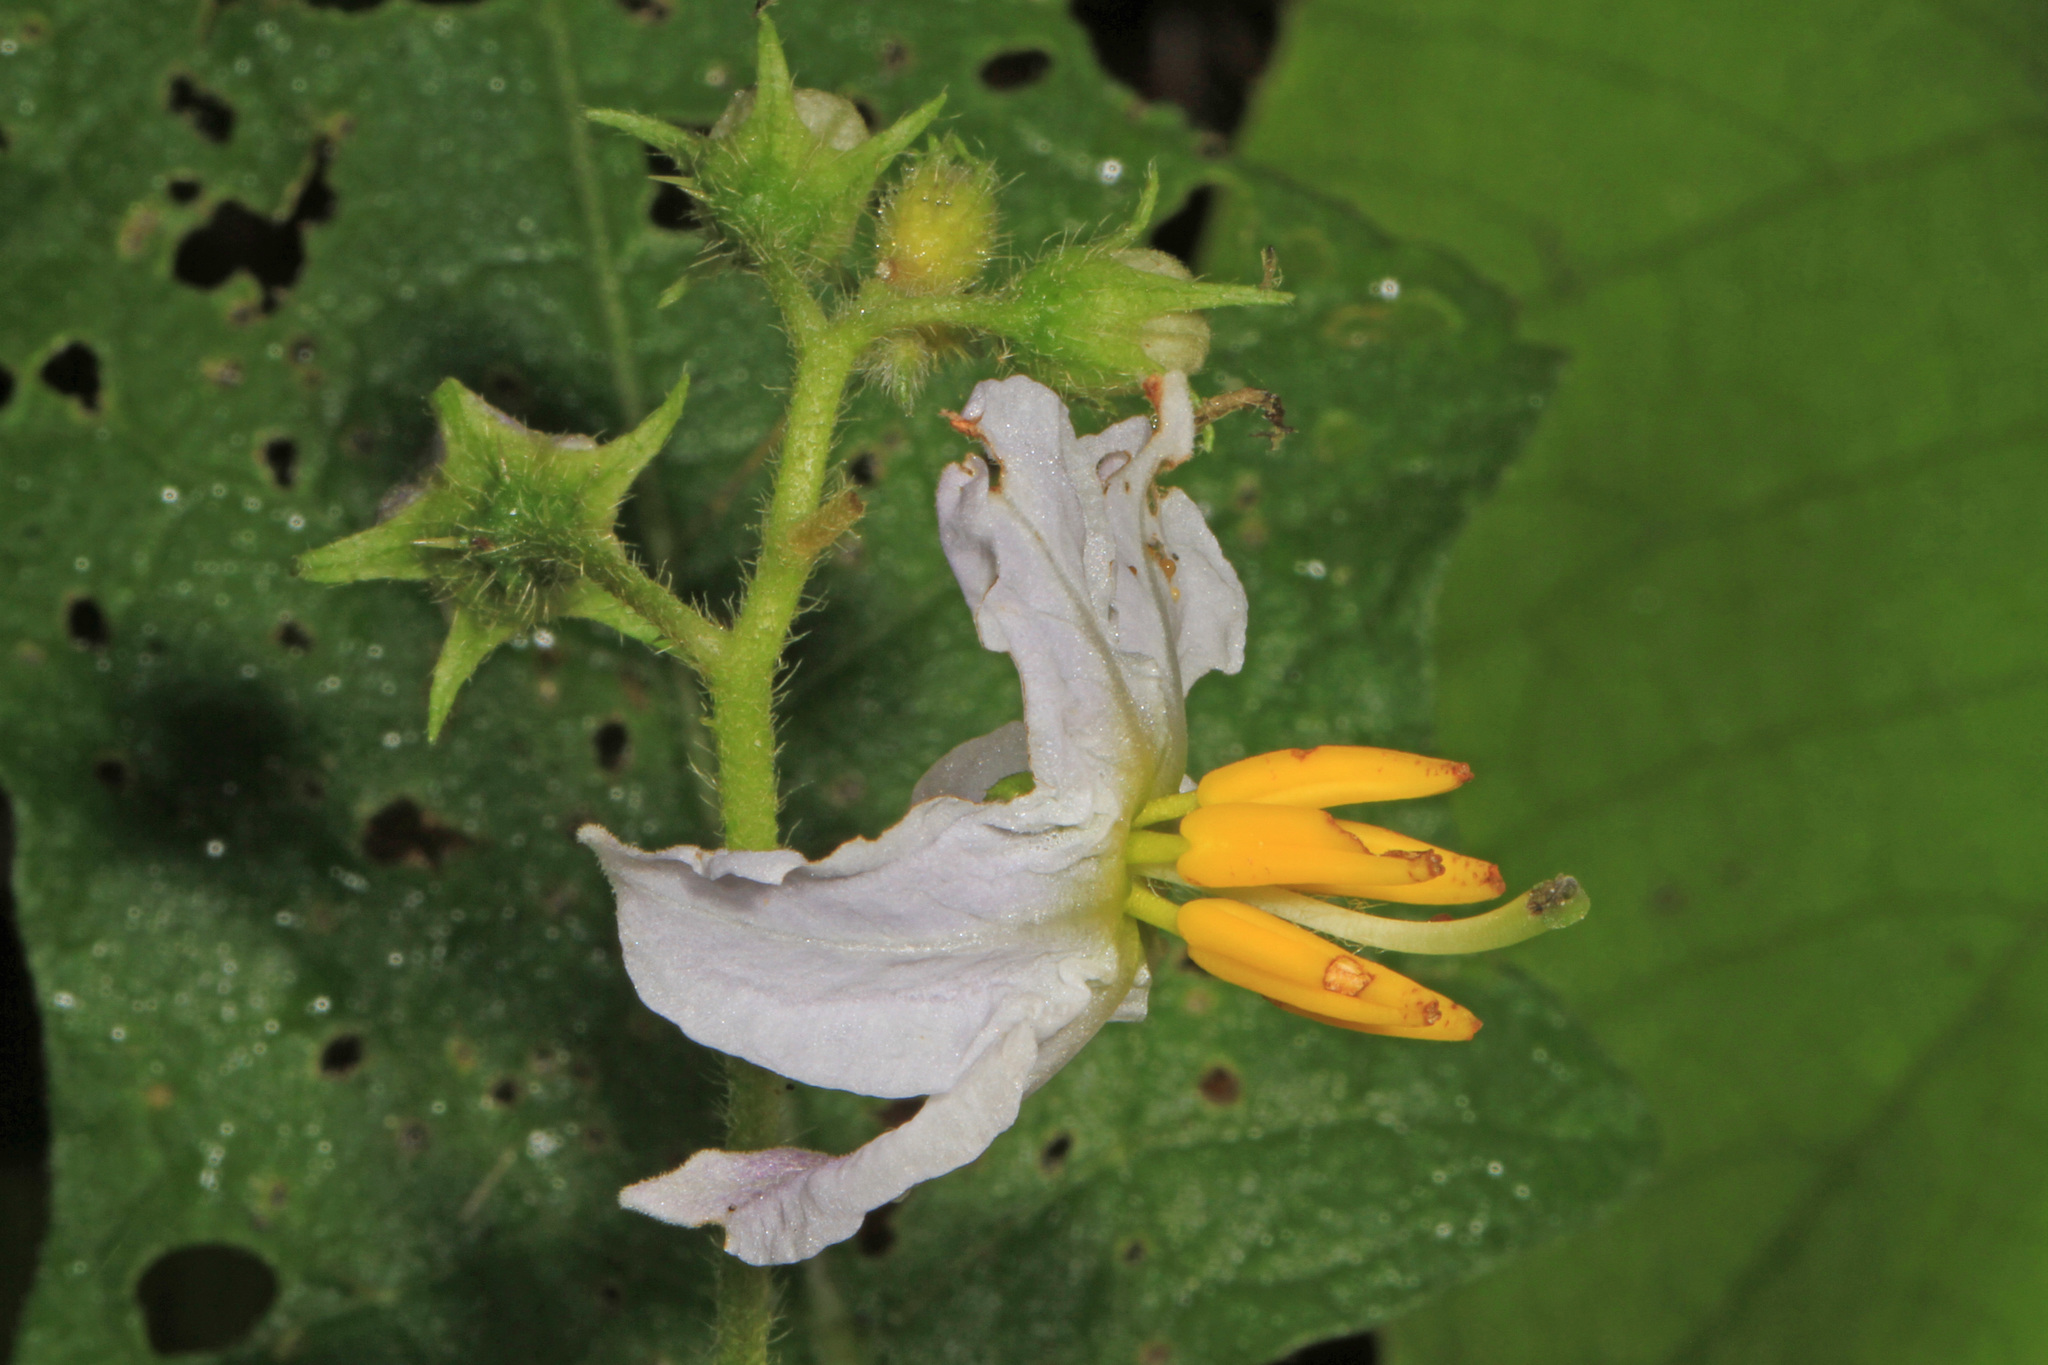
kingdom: Plantae
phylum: Tracheophyta
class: Magnoliopsida
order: Solanales
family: Solanaceae
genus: Solanum
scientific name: Solanum carolinense
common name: Horse-nettle
